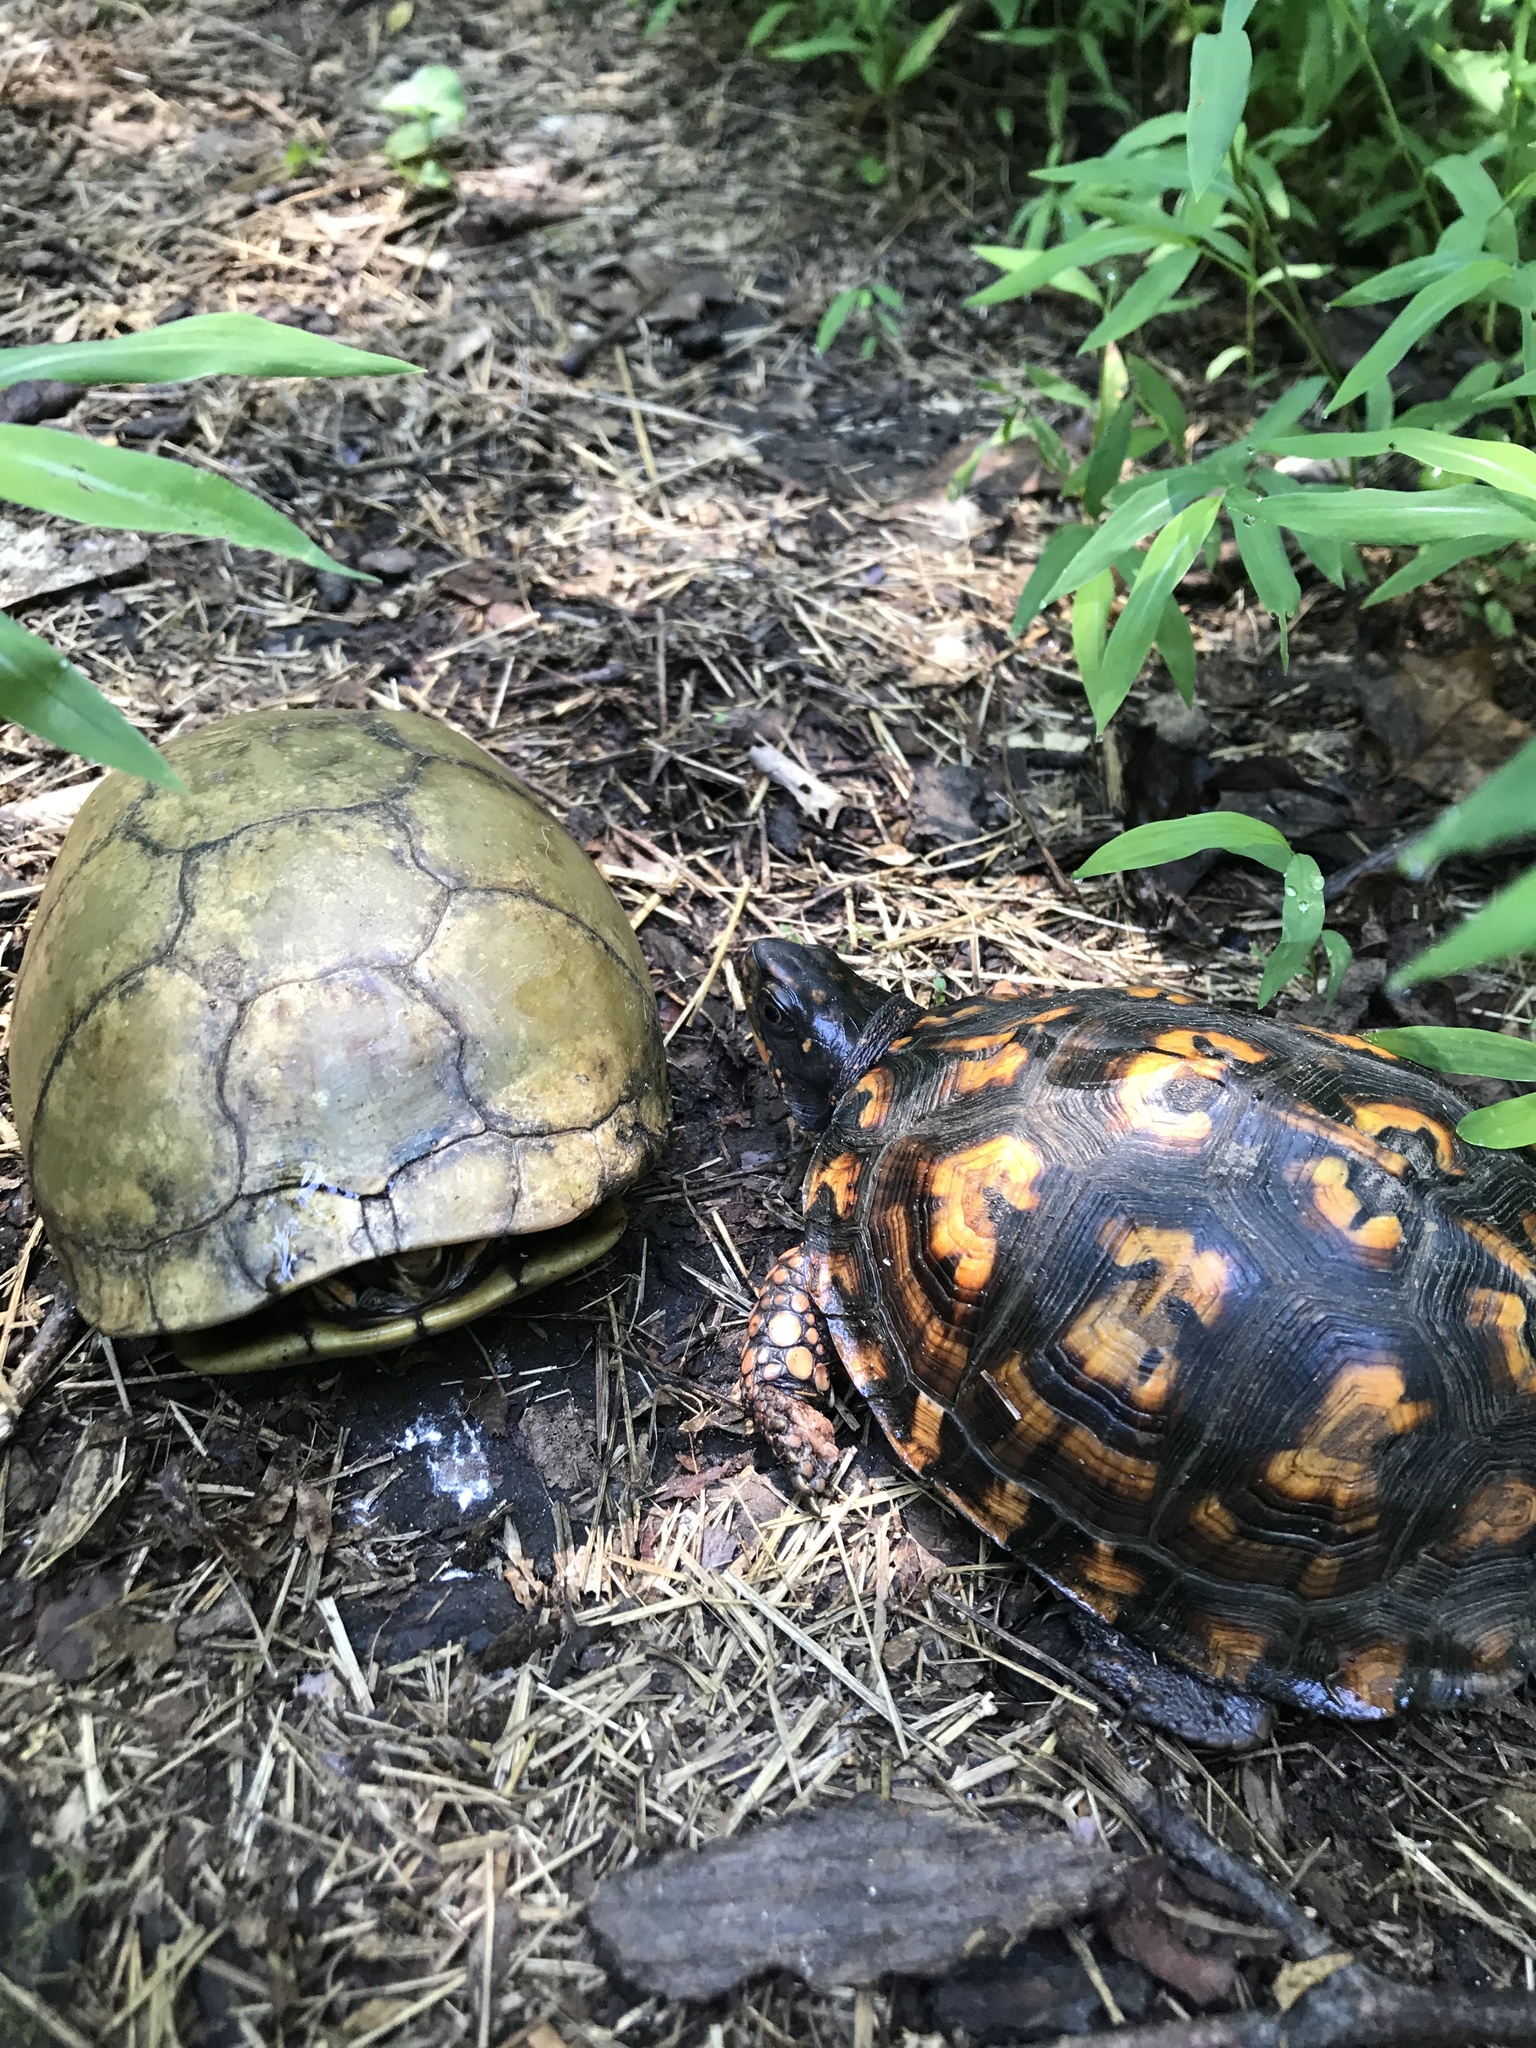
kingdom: Animalia
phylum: Chordata
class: Testudines
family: Emydidae
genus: Terrapene
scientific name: Terrapene carolina
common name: Common box turtle
